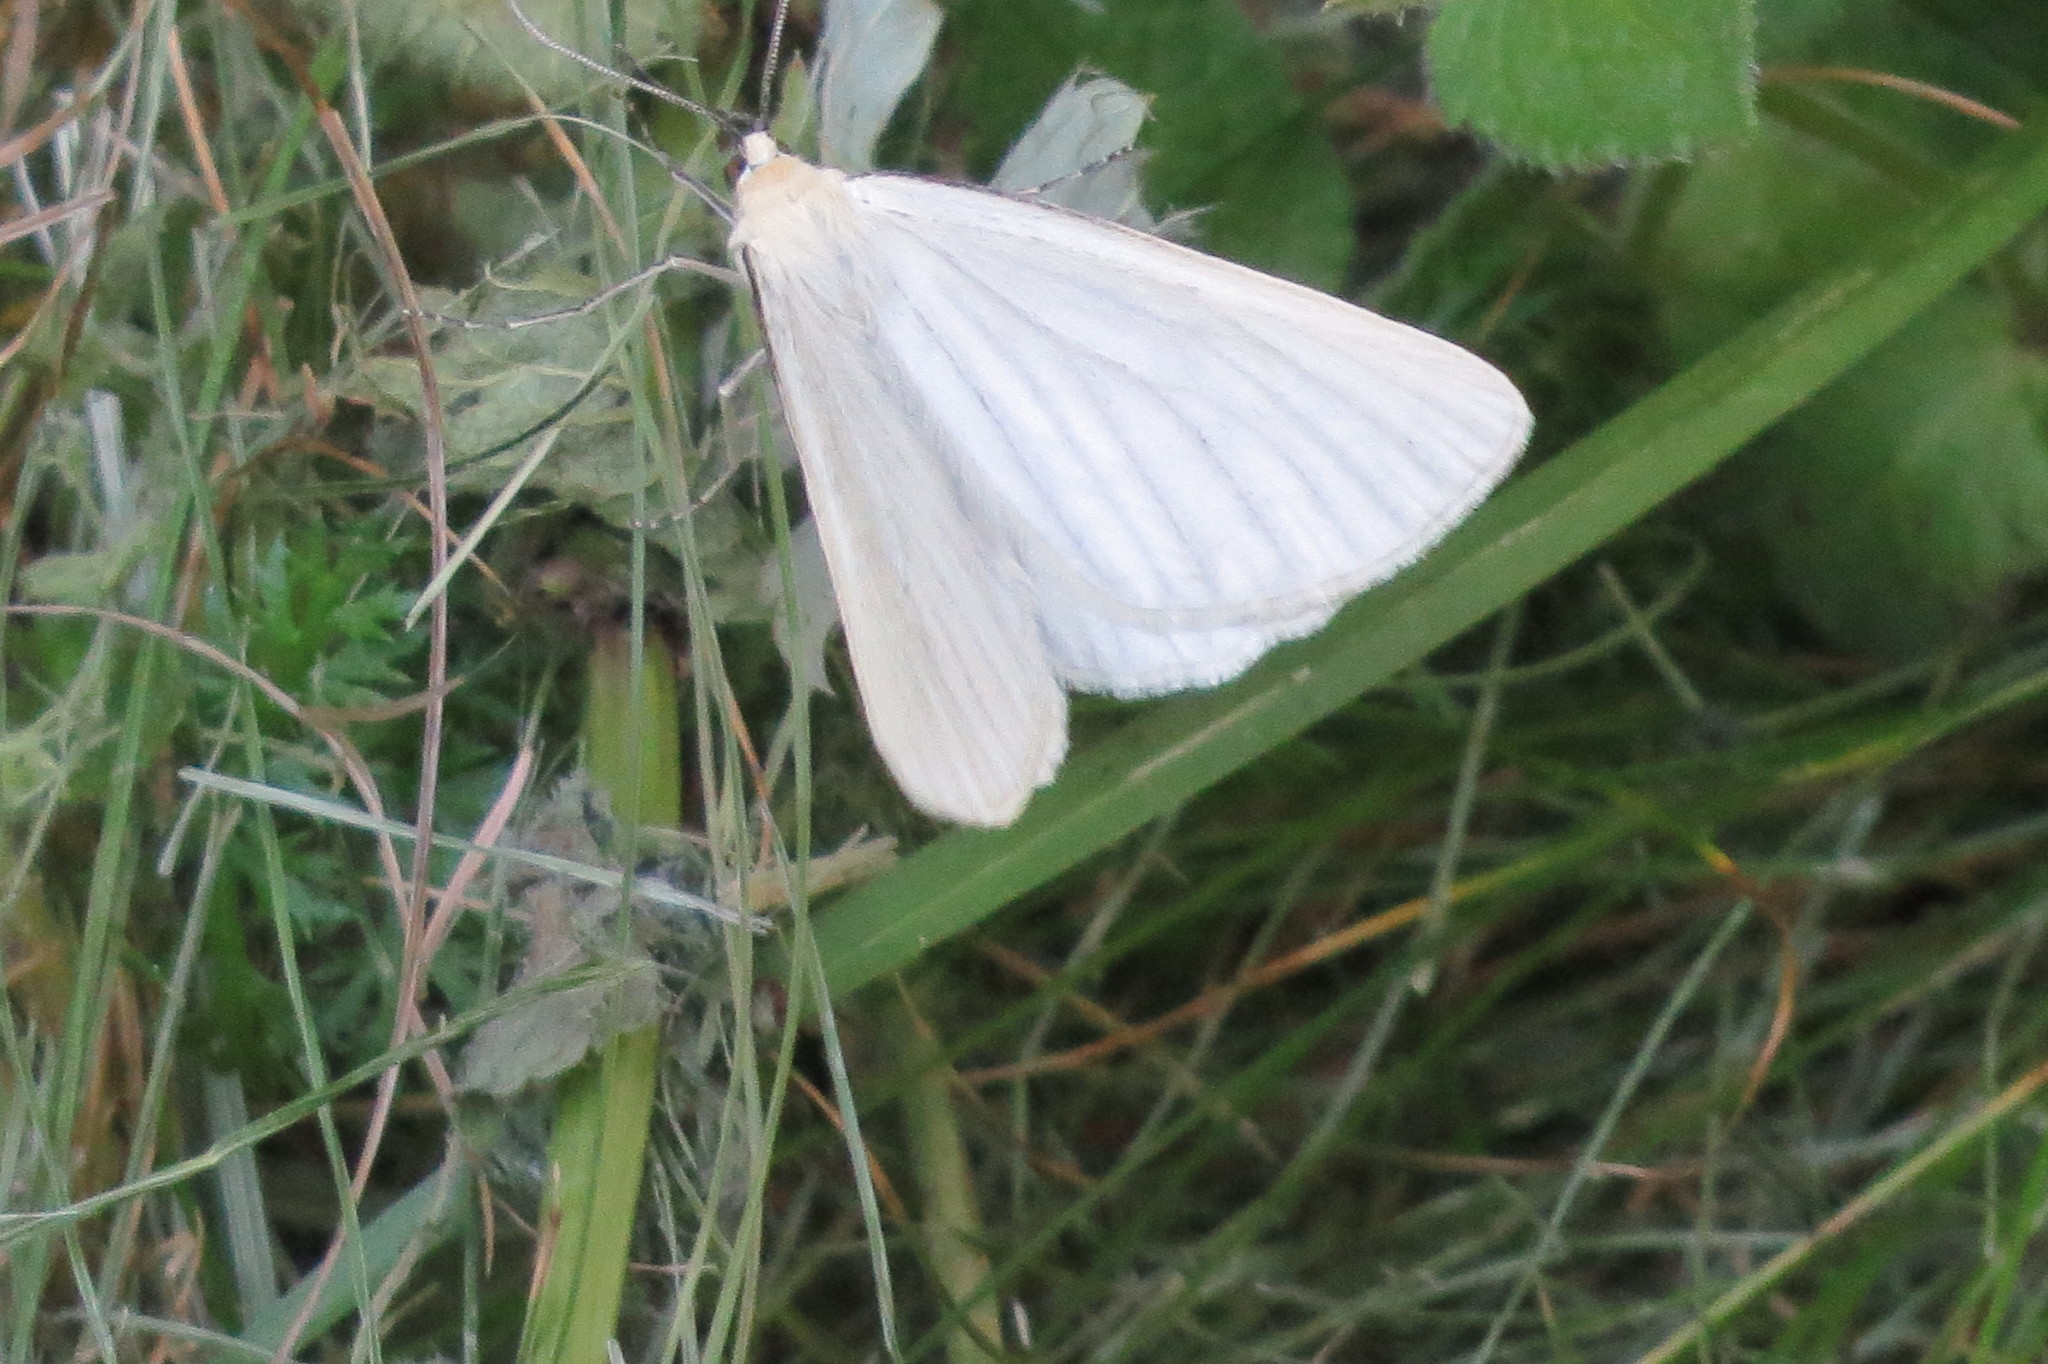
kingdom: Animalia
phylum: Arthropoda
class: Insecta
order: Lepidoptera
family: Geometridae
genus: Siona
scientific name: Siona lineata
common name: Black-veined moth
